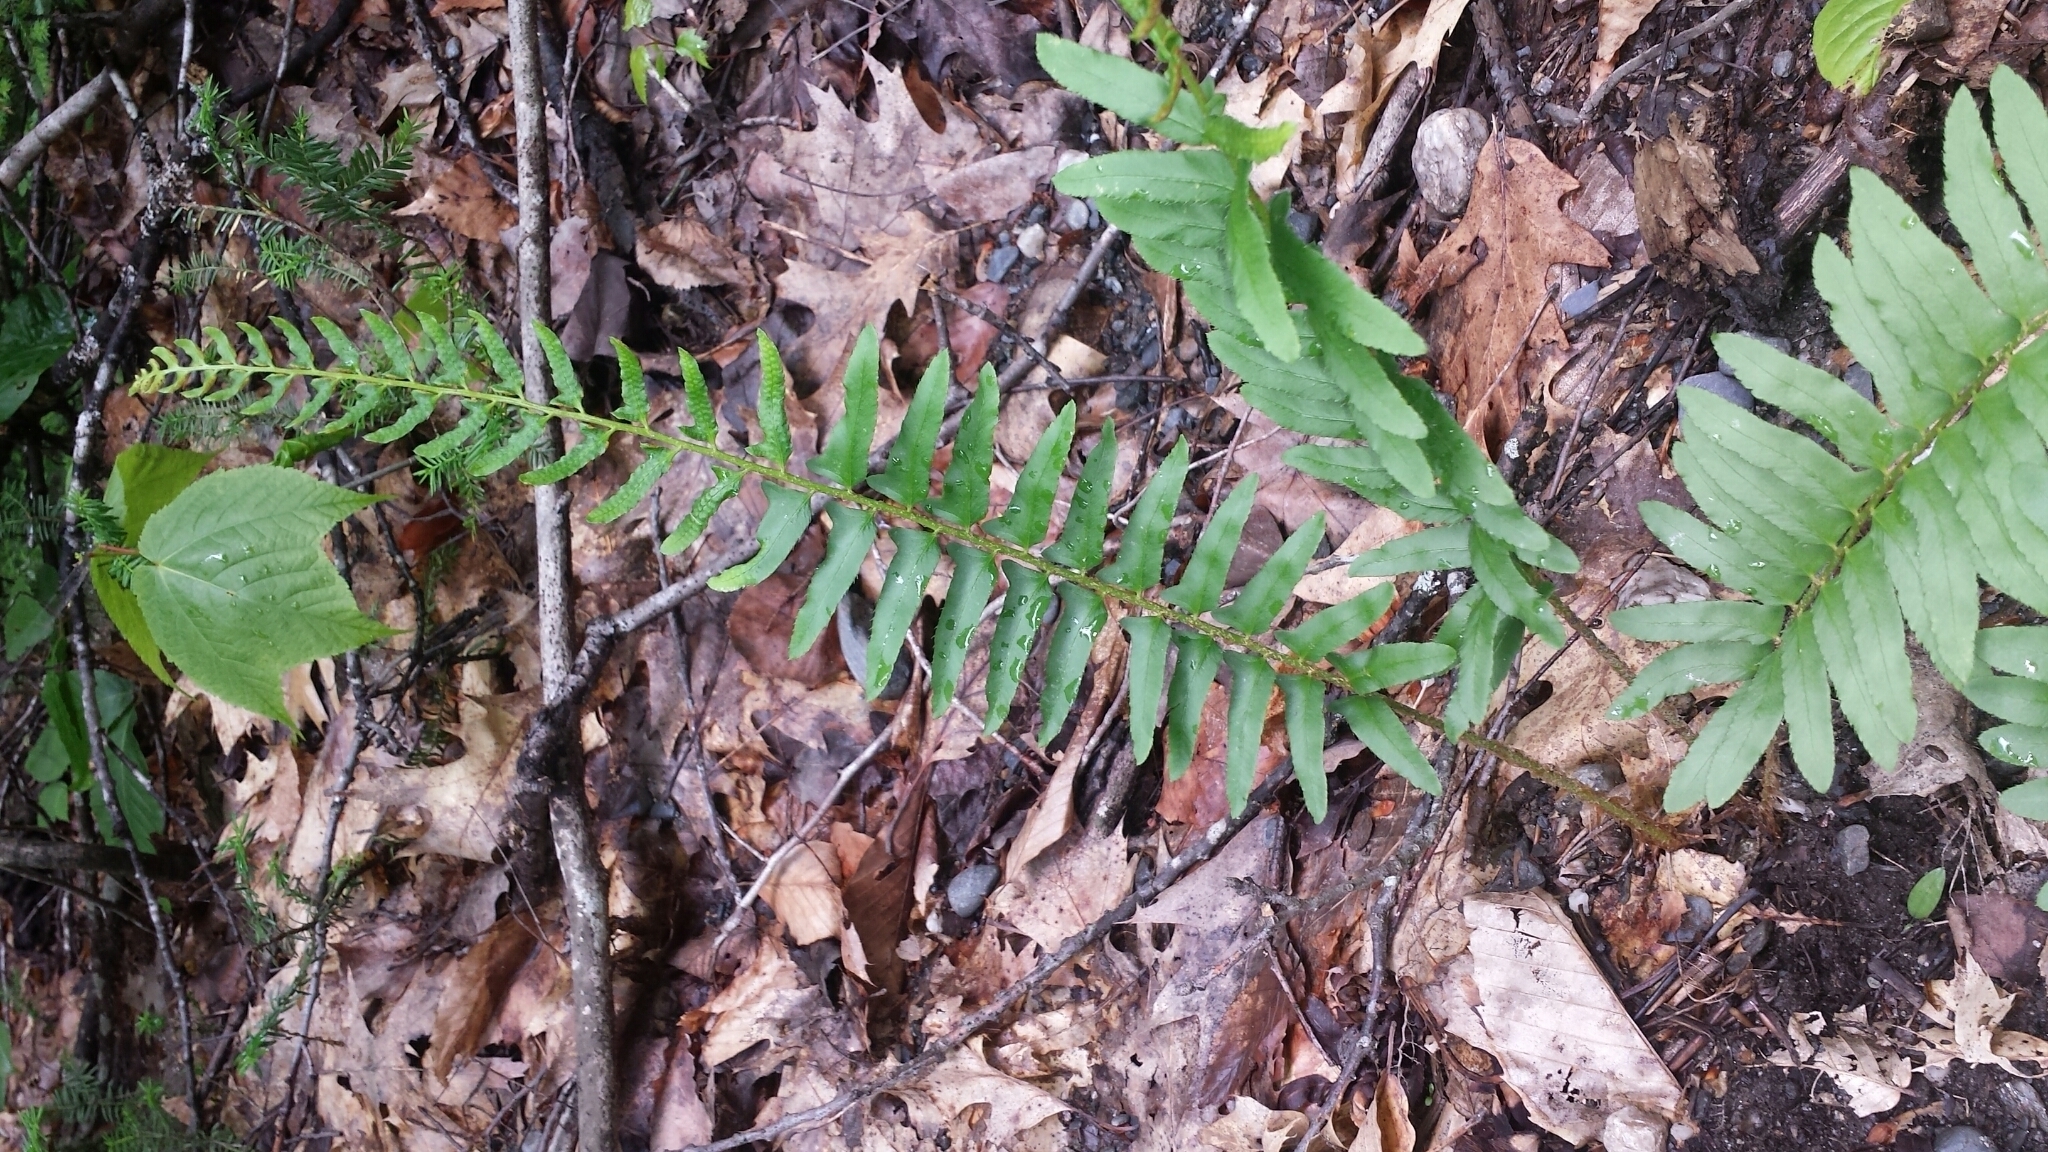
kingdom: Plantae
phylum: Tracheophyta
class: Polypodiopsida
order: Polypodiales
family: Dryopteridaceae
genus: Polystichum
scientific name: Polystichum acrostichoides
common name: Christmas fern
